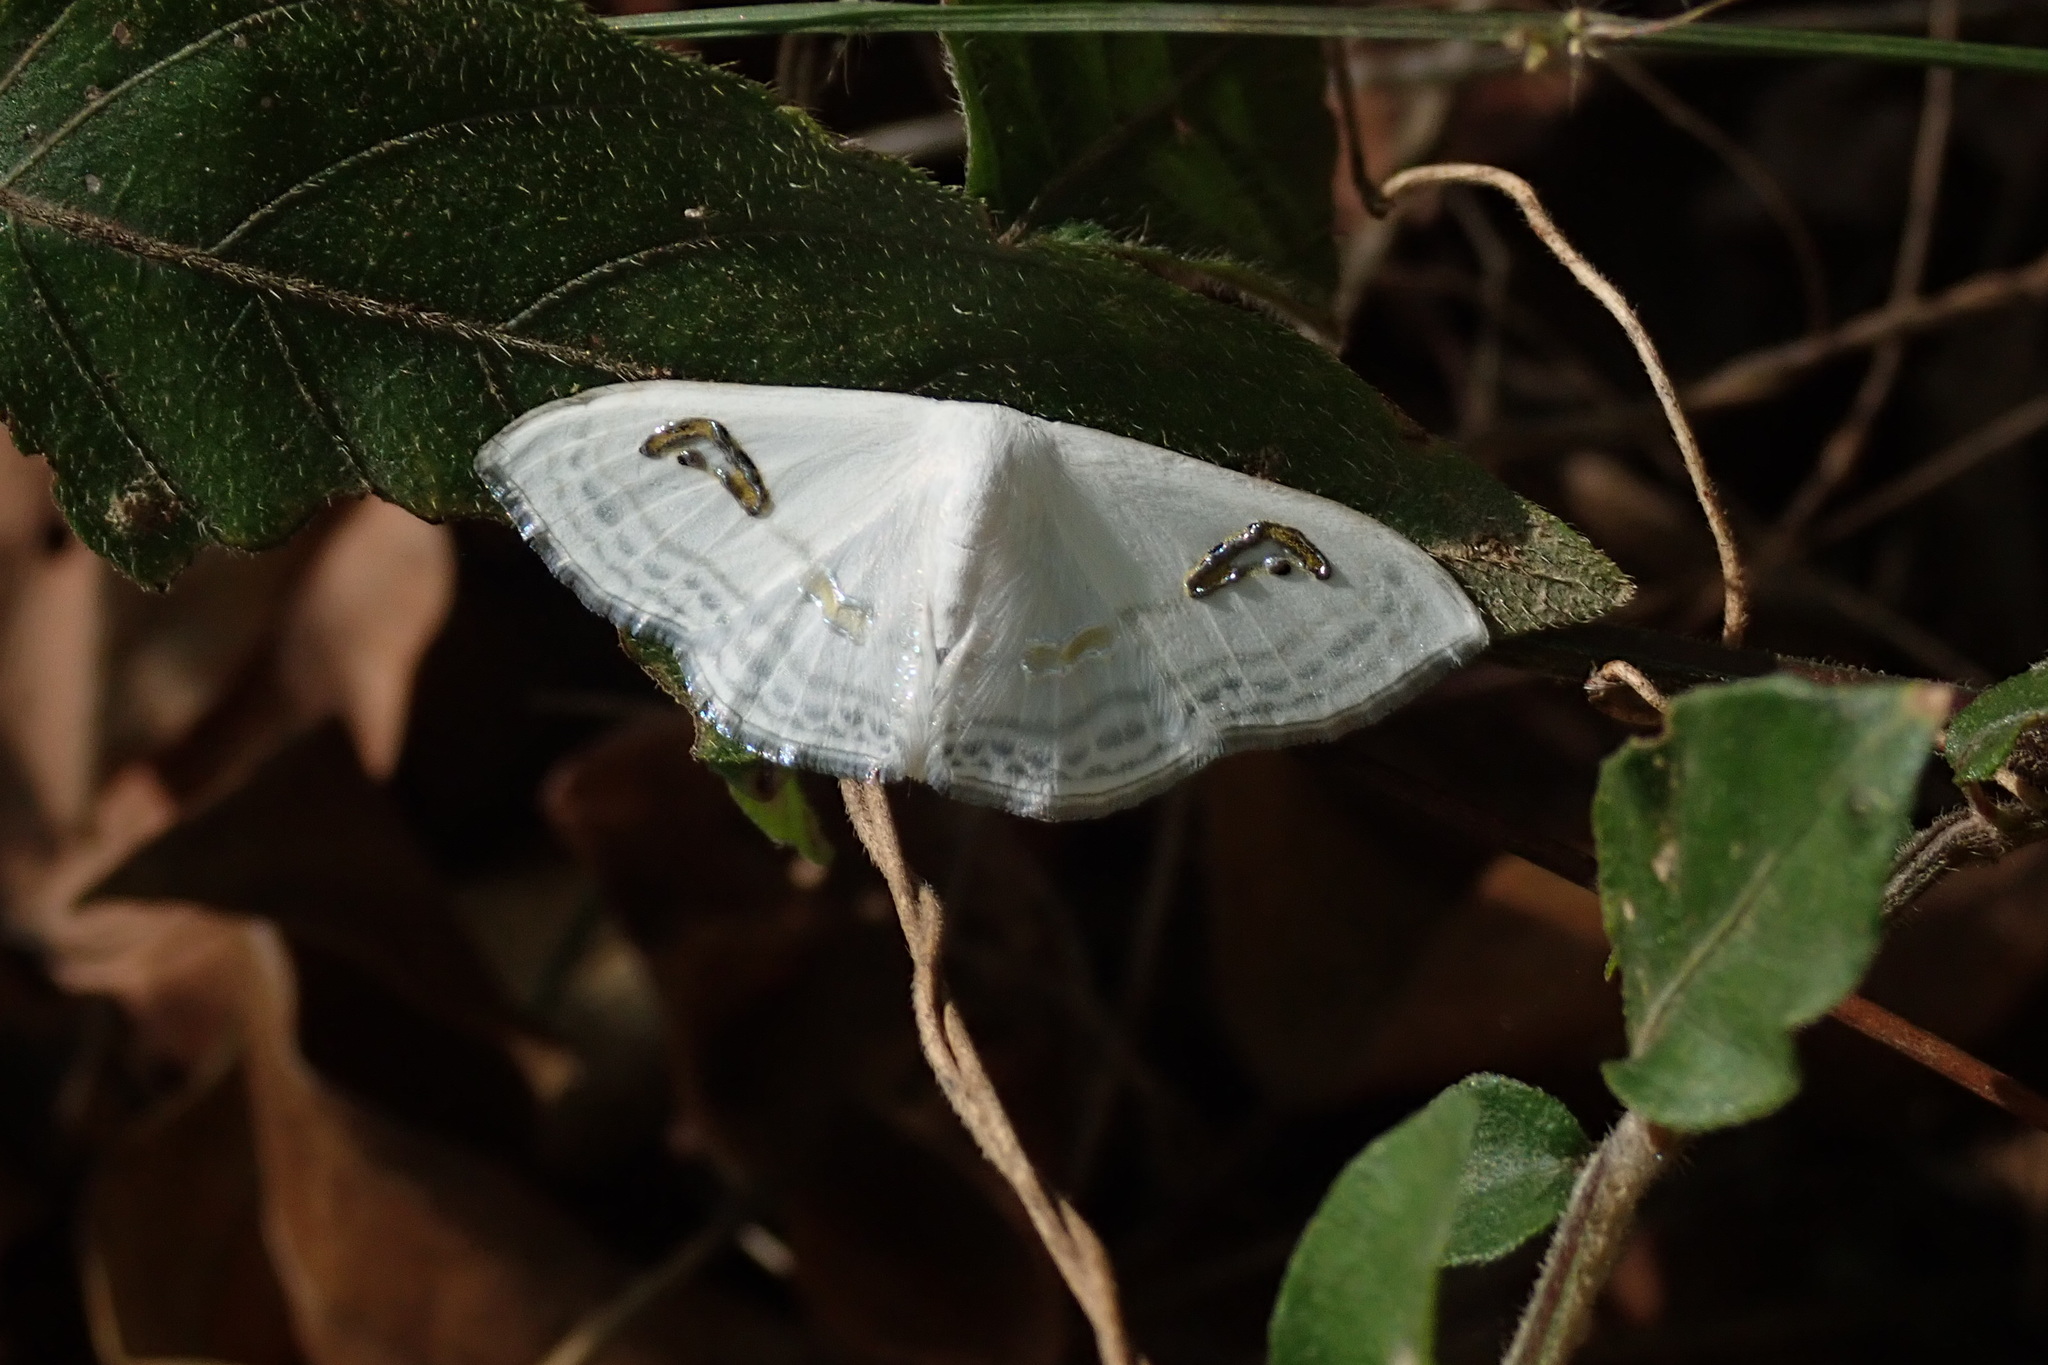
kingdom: Animalia
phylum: Arthropoda
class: Insecta
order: Lepidoptera
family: Geometridae
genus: Problepsis
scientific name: Problepsis digammata
